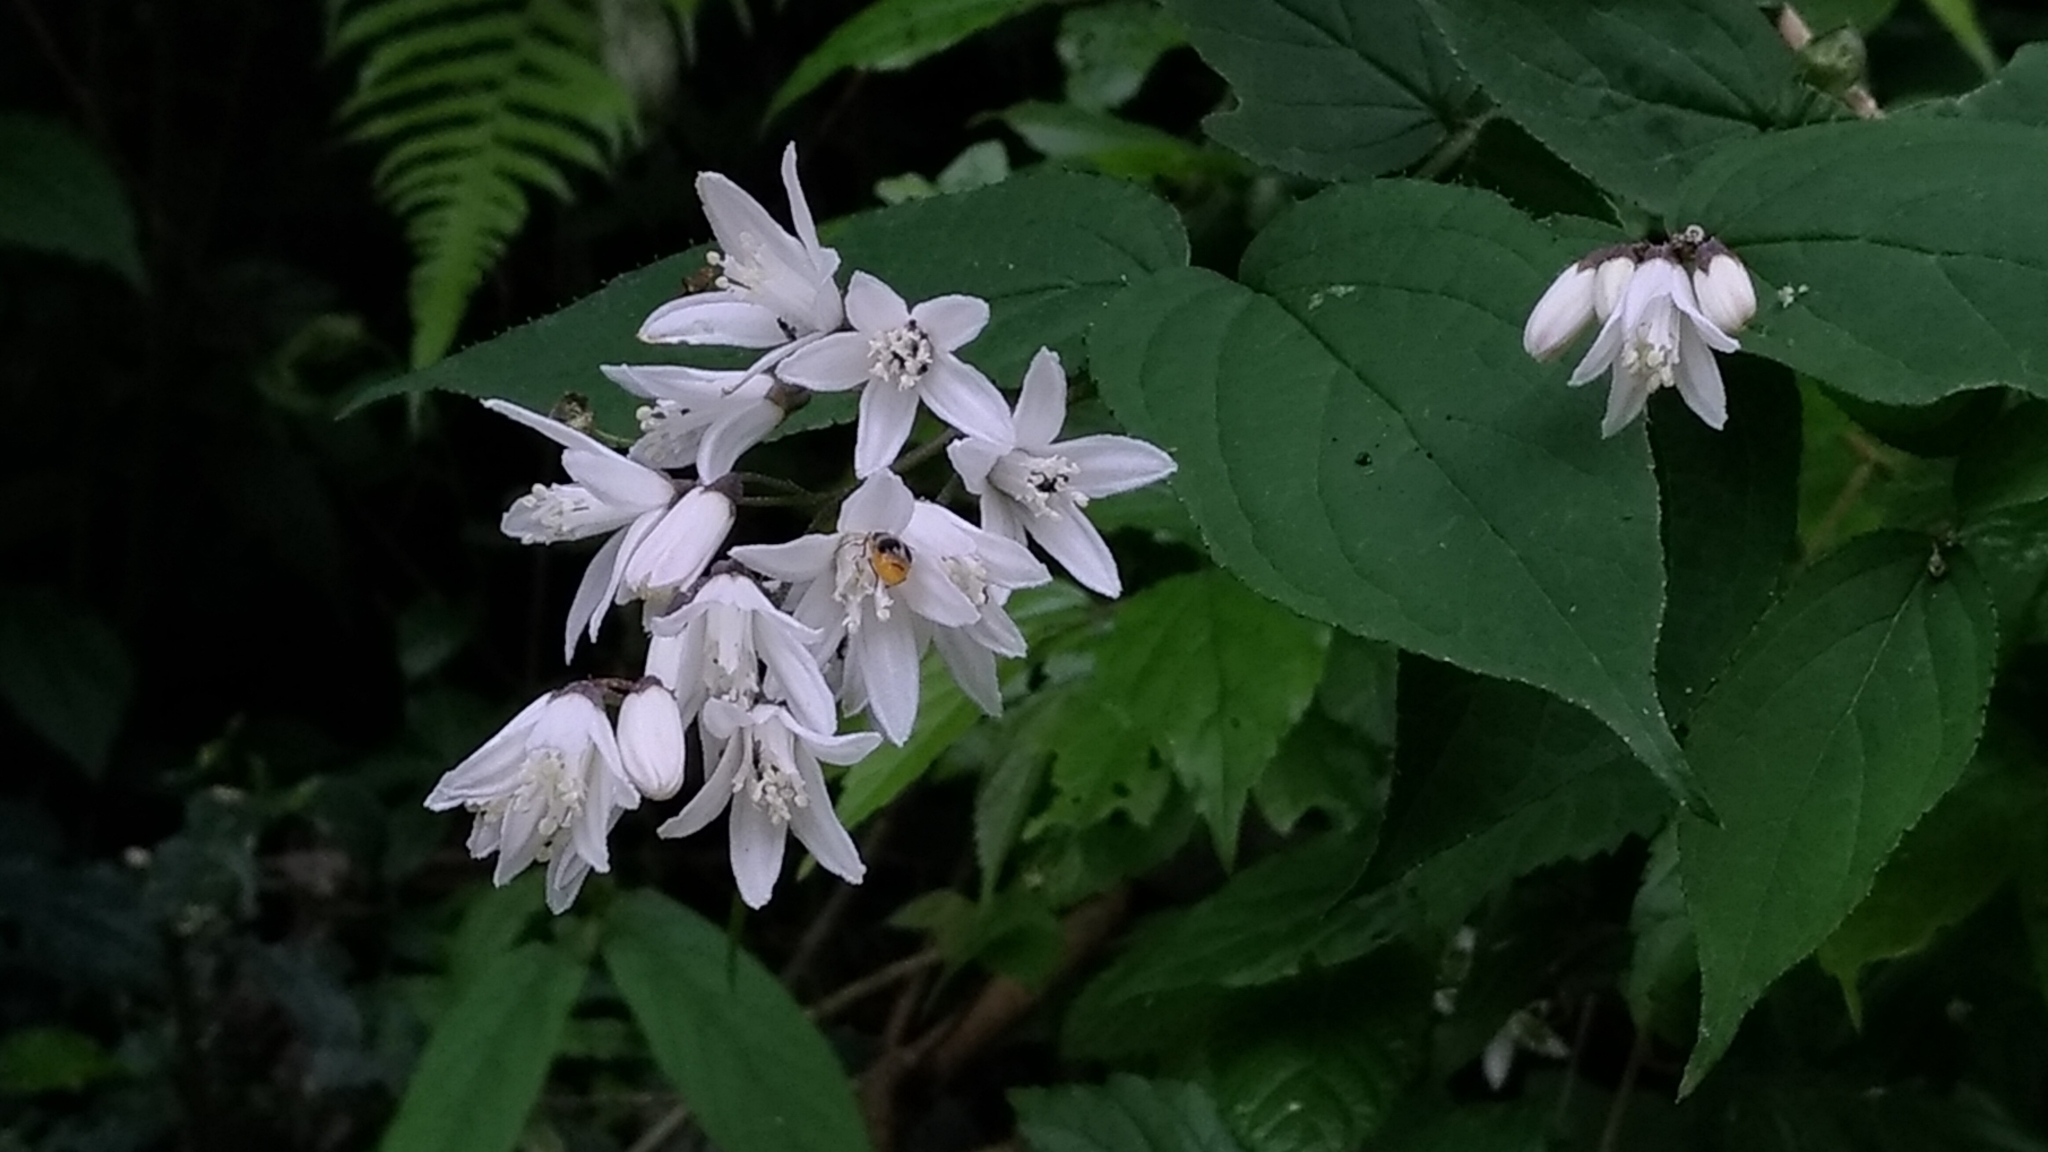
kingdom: Plantae
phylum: Tracheophyta
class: Magnoliopsida
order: Cornales
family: Hydrangeaceae
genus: Deutzia
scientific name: Deutzia taiwanensis
